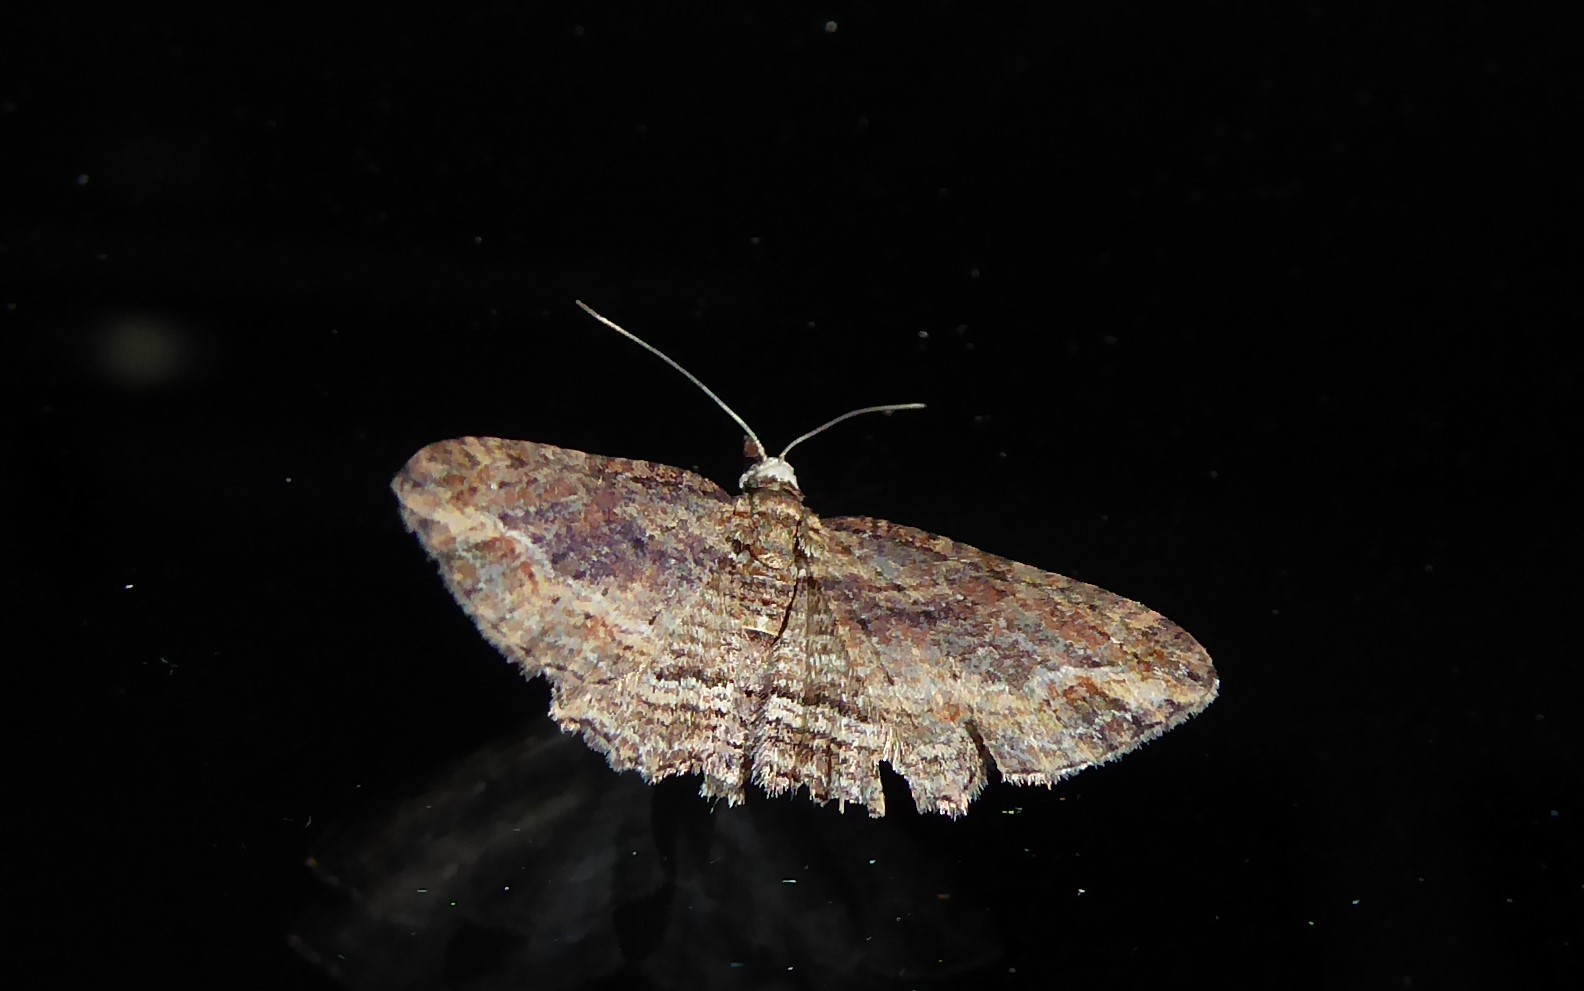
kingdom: Animalia
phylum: Arthropoda
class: Insecta
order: Lepidoptera
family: Geometridae
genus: Chloroclystis
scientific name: Chloroclystis filata
